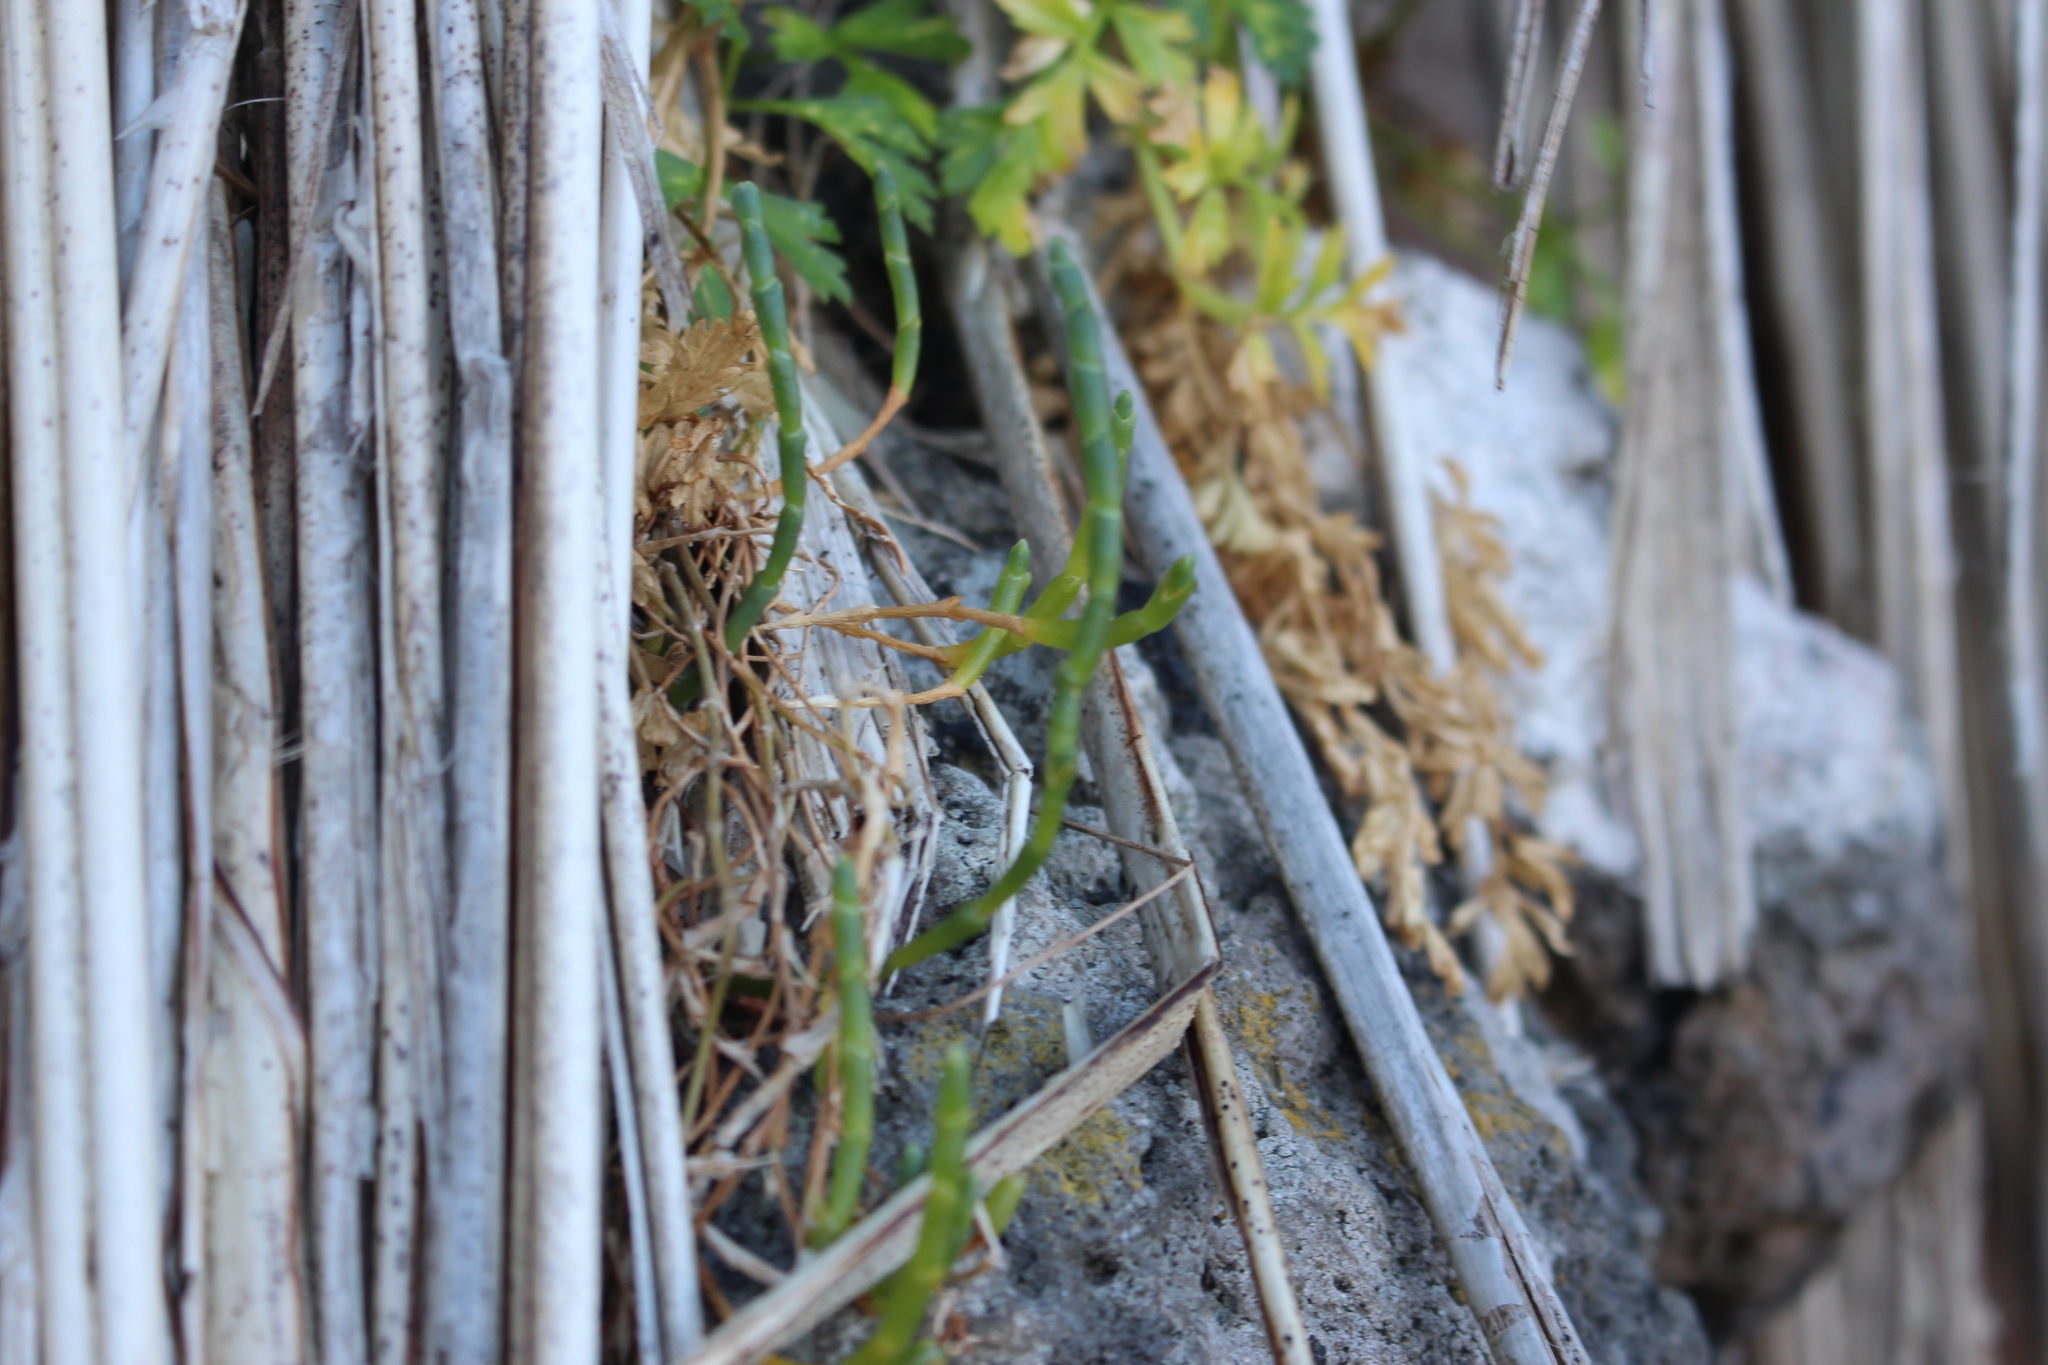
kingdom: Plantae
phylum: Tracheophyta
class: Magnoliopsida
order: Caryophyllales
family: Amaranthaceae
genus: Salicornia
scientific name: Salicornia quinqueflora
